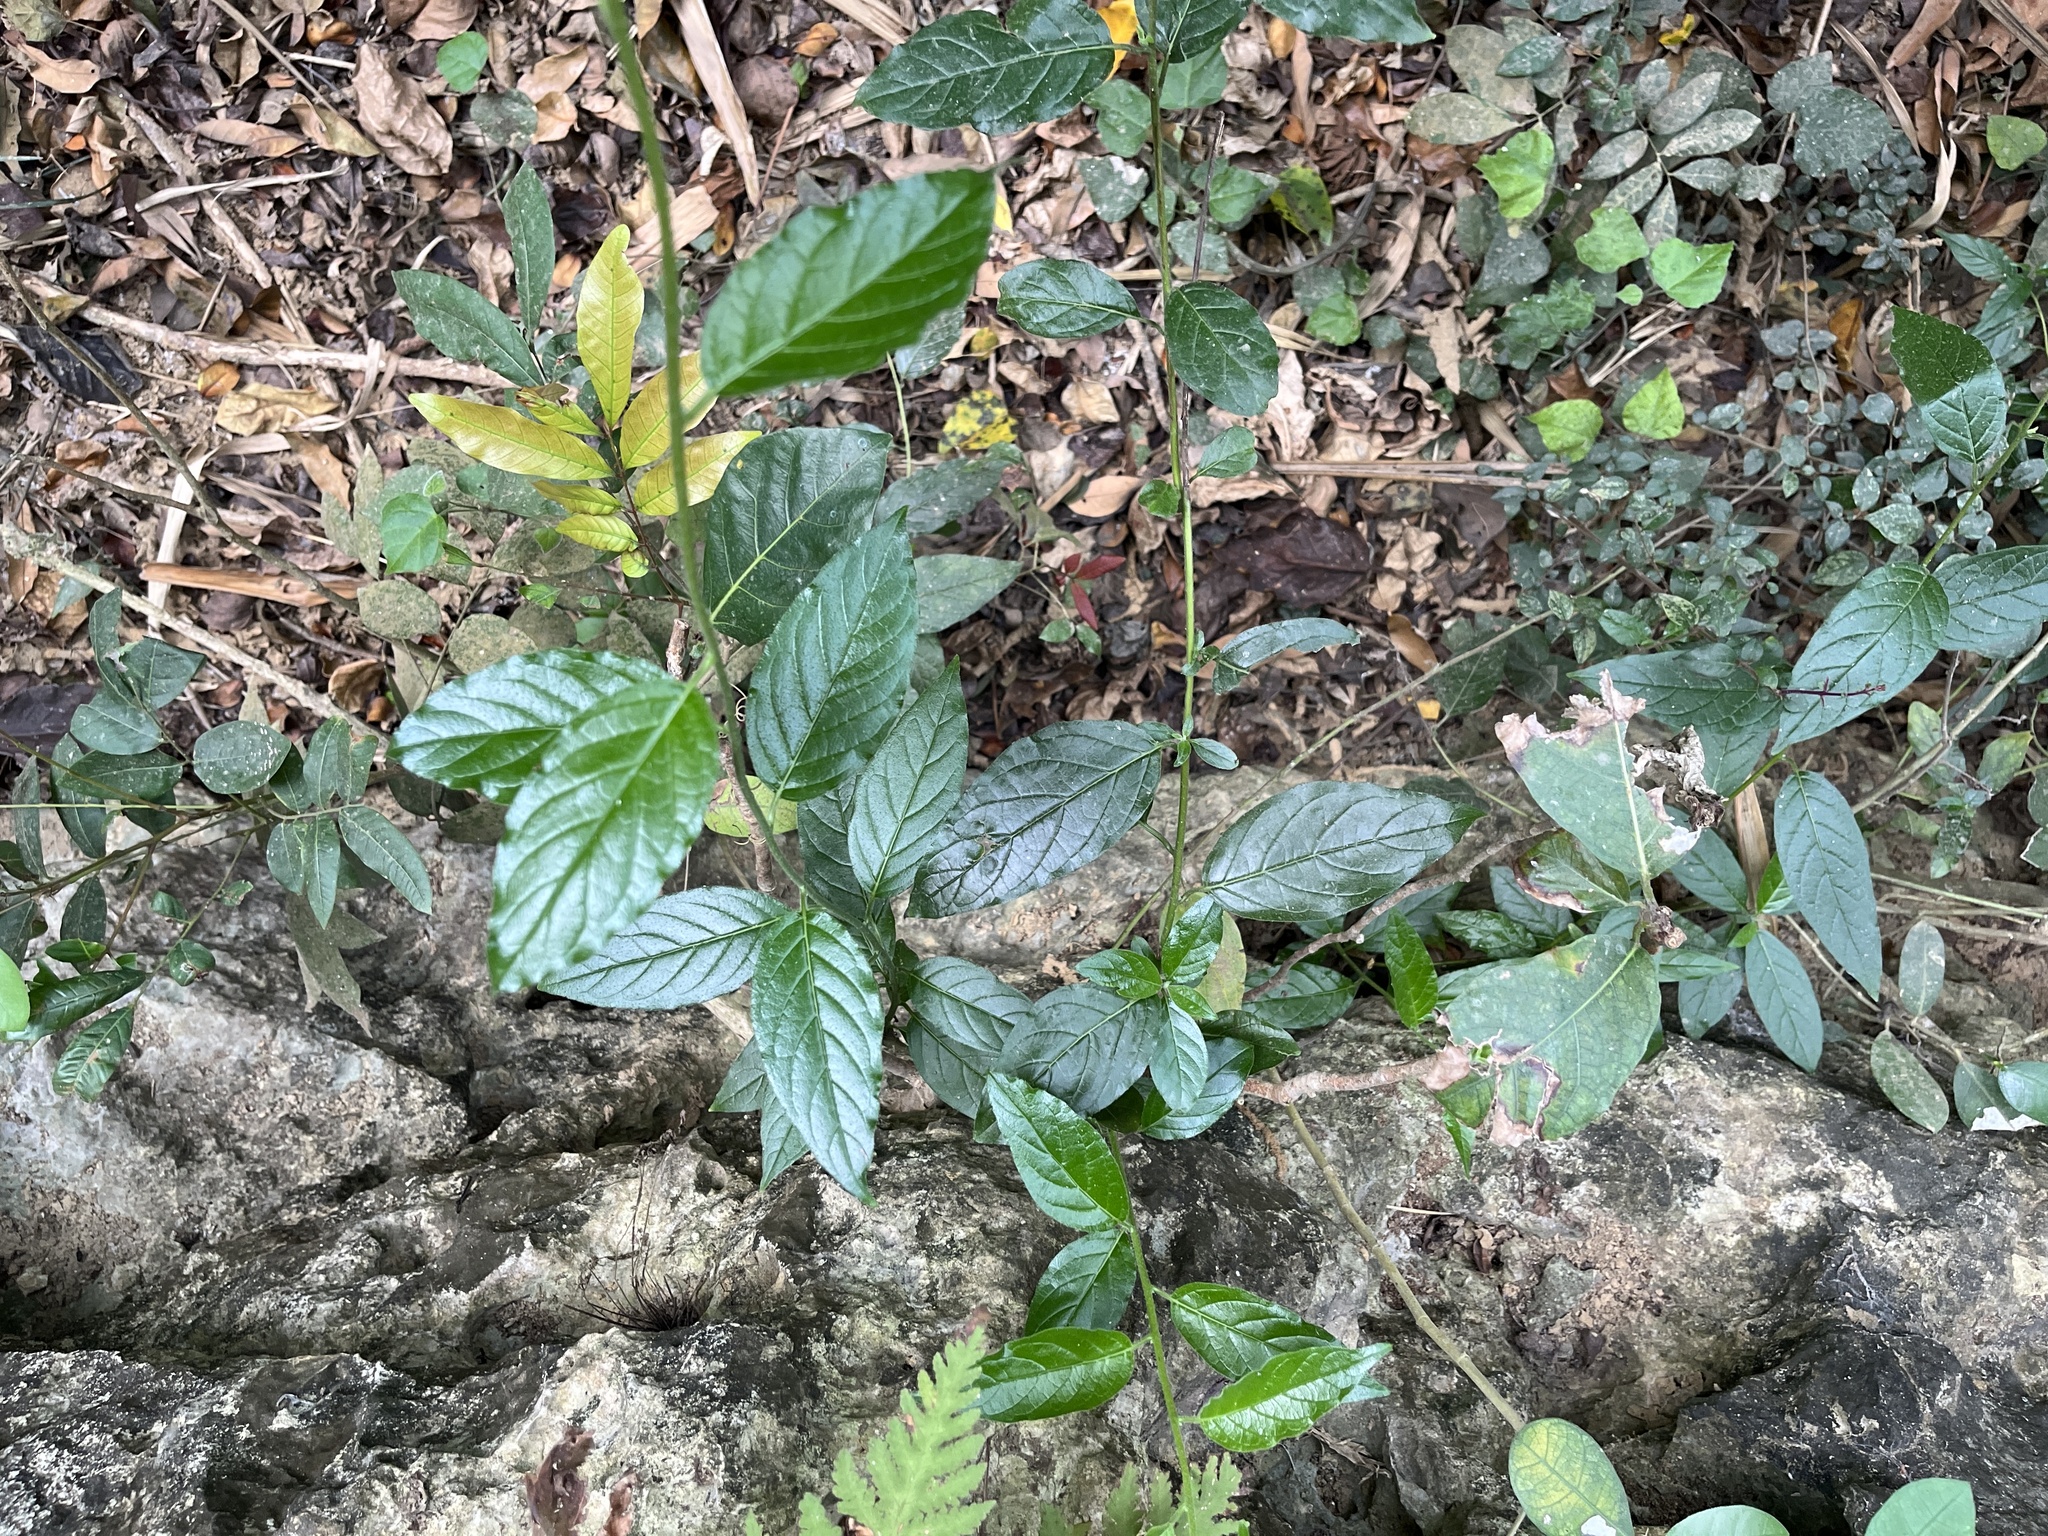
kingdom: Plantae
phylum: Tracheophyta
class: Magnoliopsida
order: Boraginales
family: Ehretiaceae
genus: Ehretia
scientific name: Ehretia resinosa
